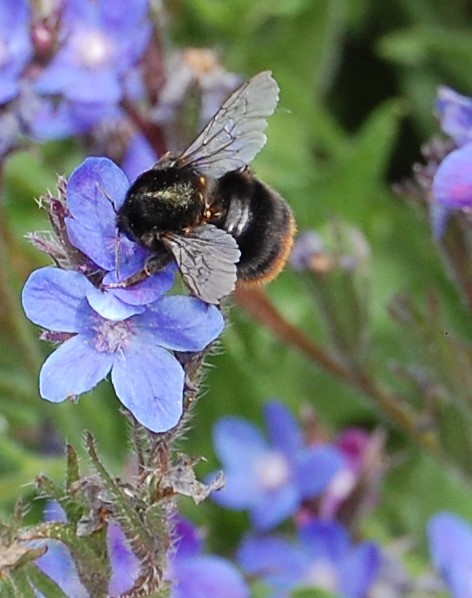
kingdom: Animalia
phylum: Arthropoda
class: Insecta
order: Hymenoptera
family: Apidae
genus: Bombus
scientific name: Bombus lapidarius
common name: Large red-tailed humble-bee
